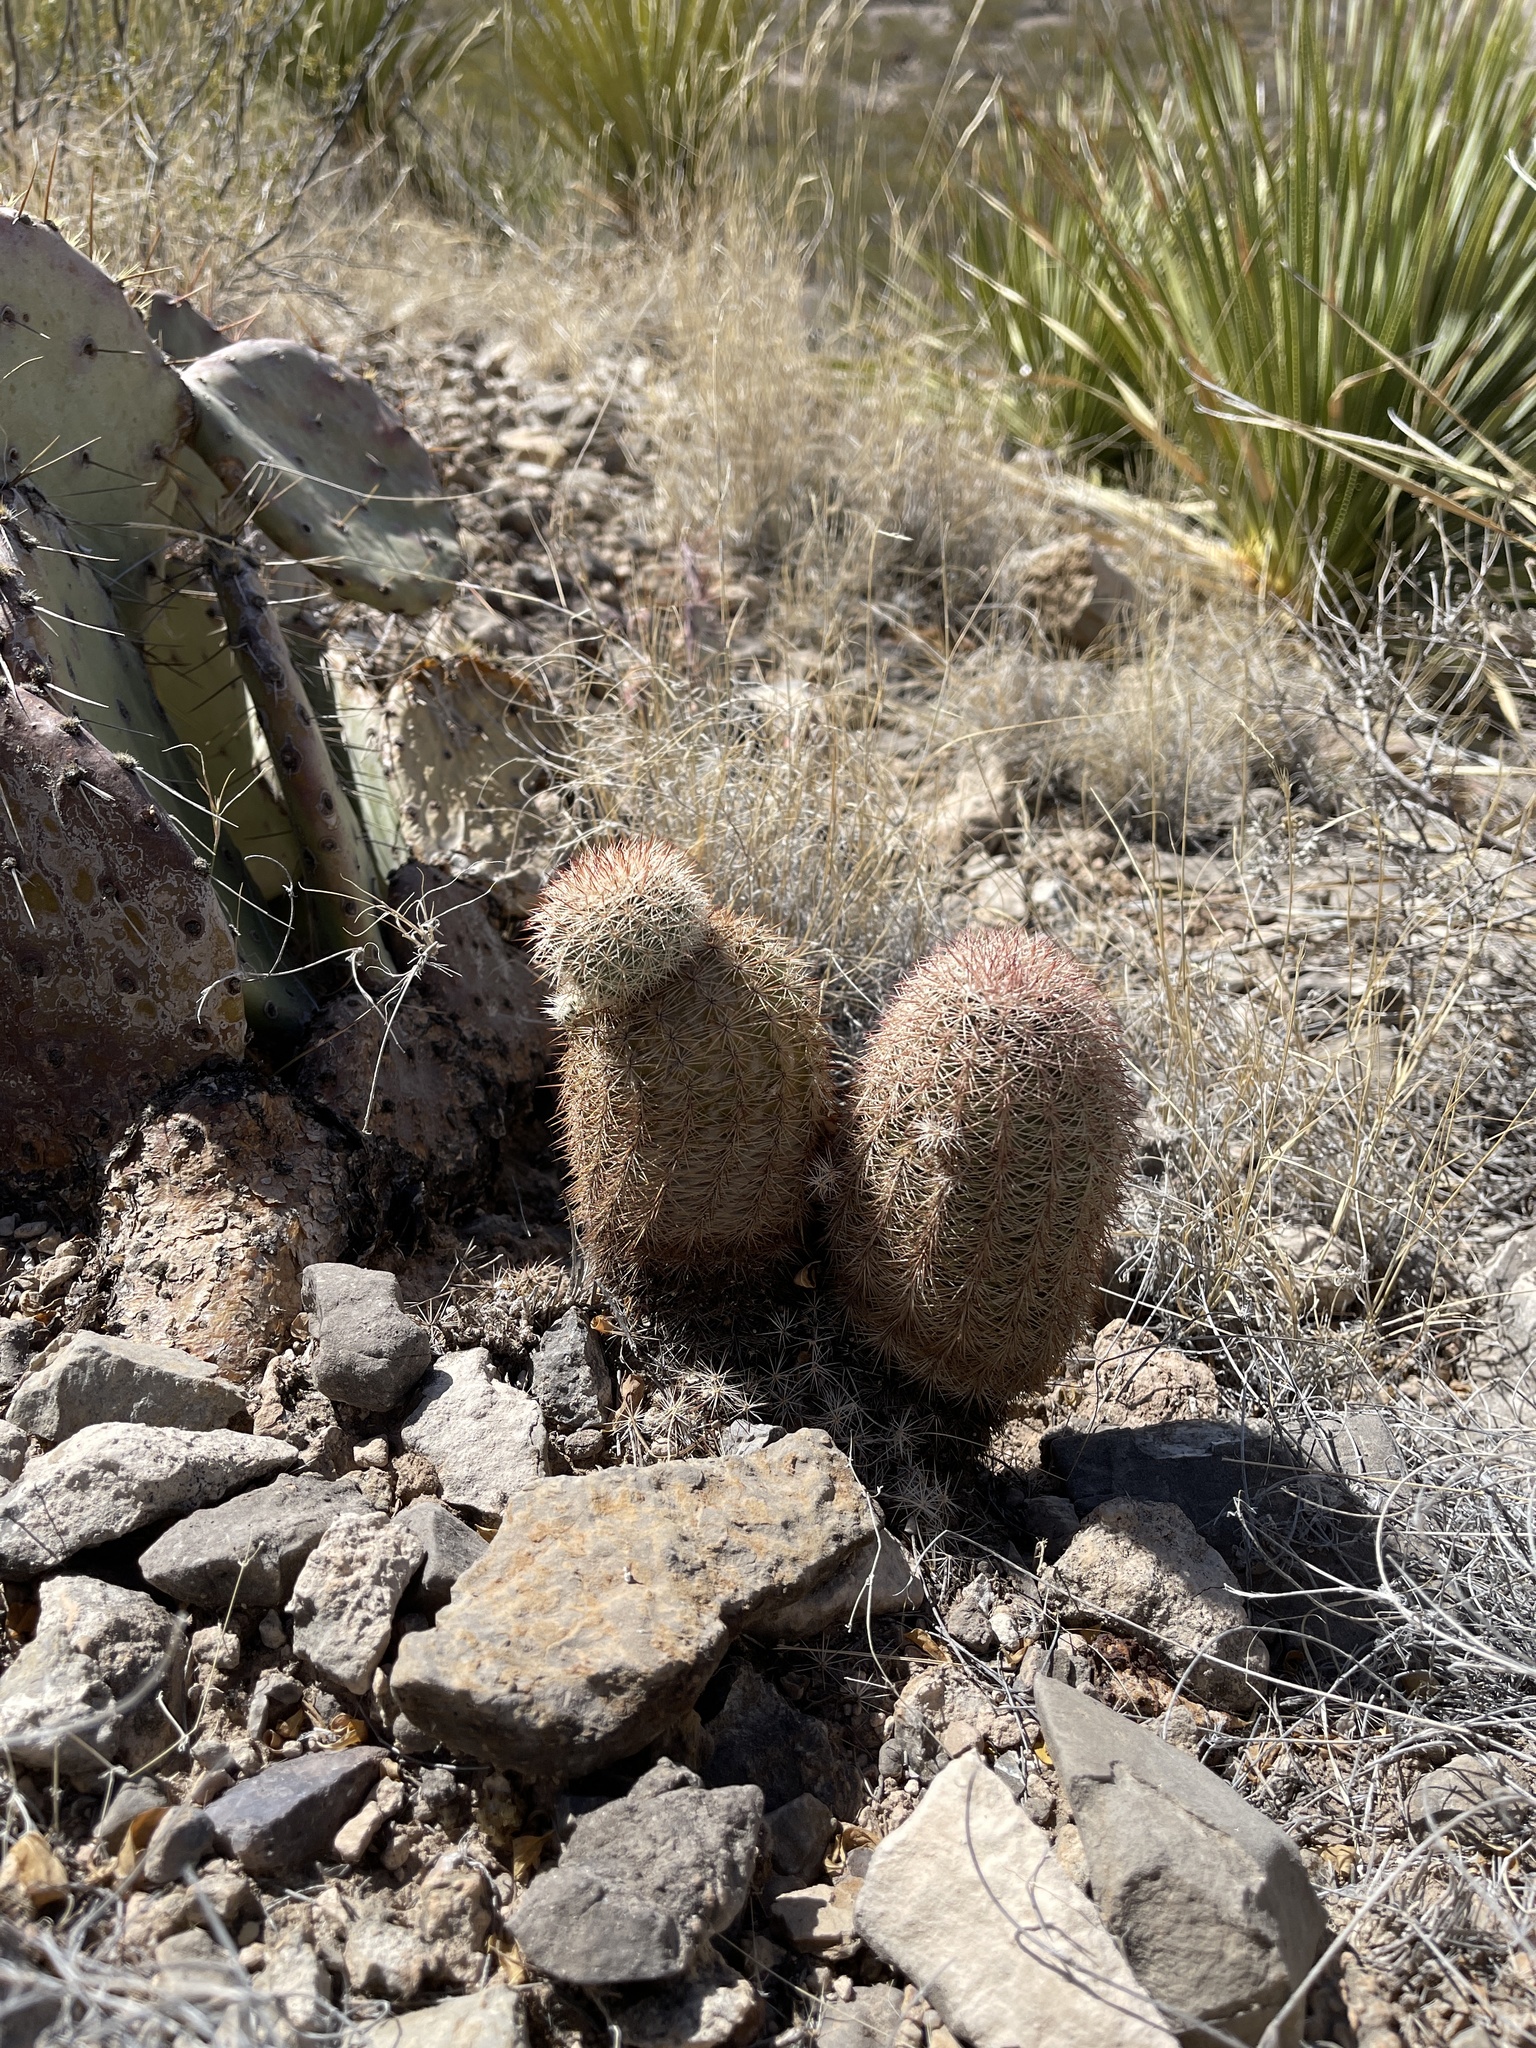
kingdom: Plantae
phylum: Tracheophyta
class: Magnoliopsida
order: Caryophyllales
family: Cactaceae
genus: Echinocereus
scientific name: Echinocereus dasyacanthus
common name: Spiny hedgehog cactus
